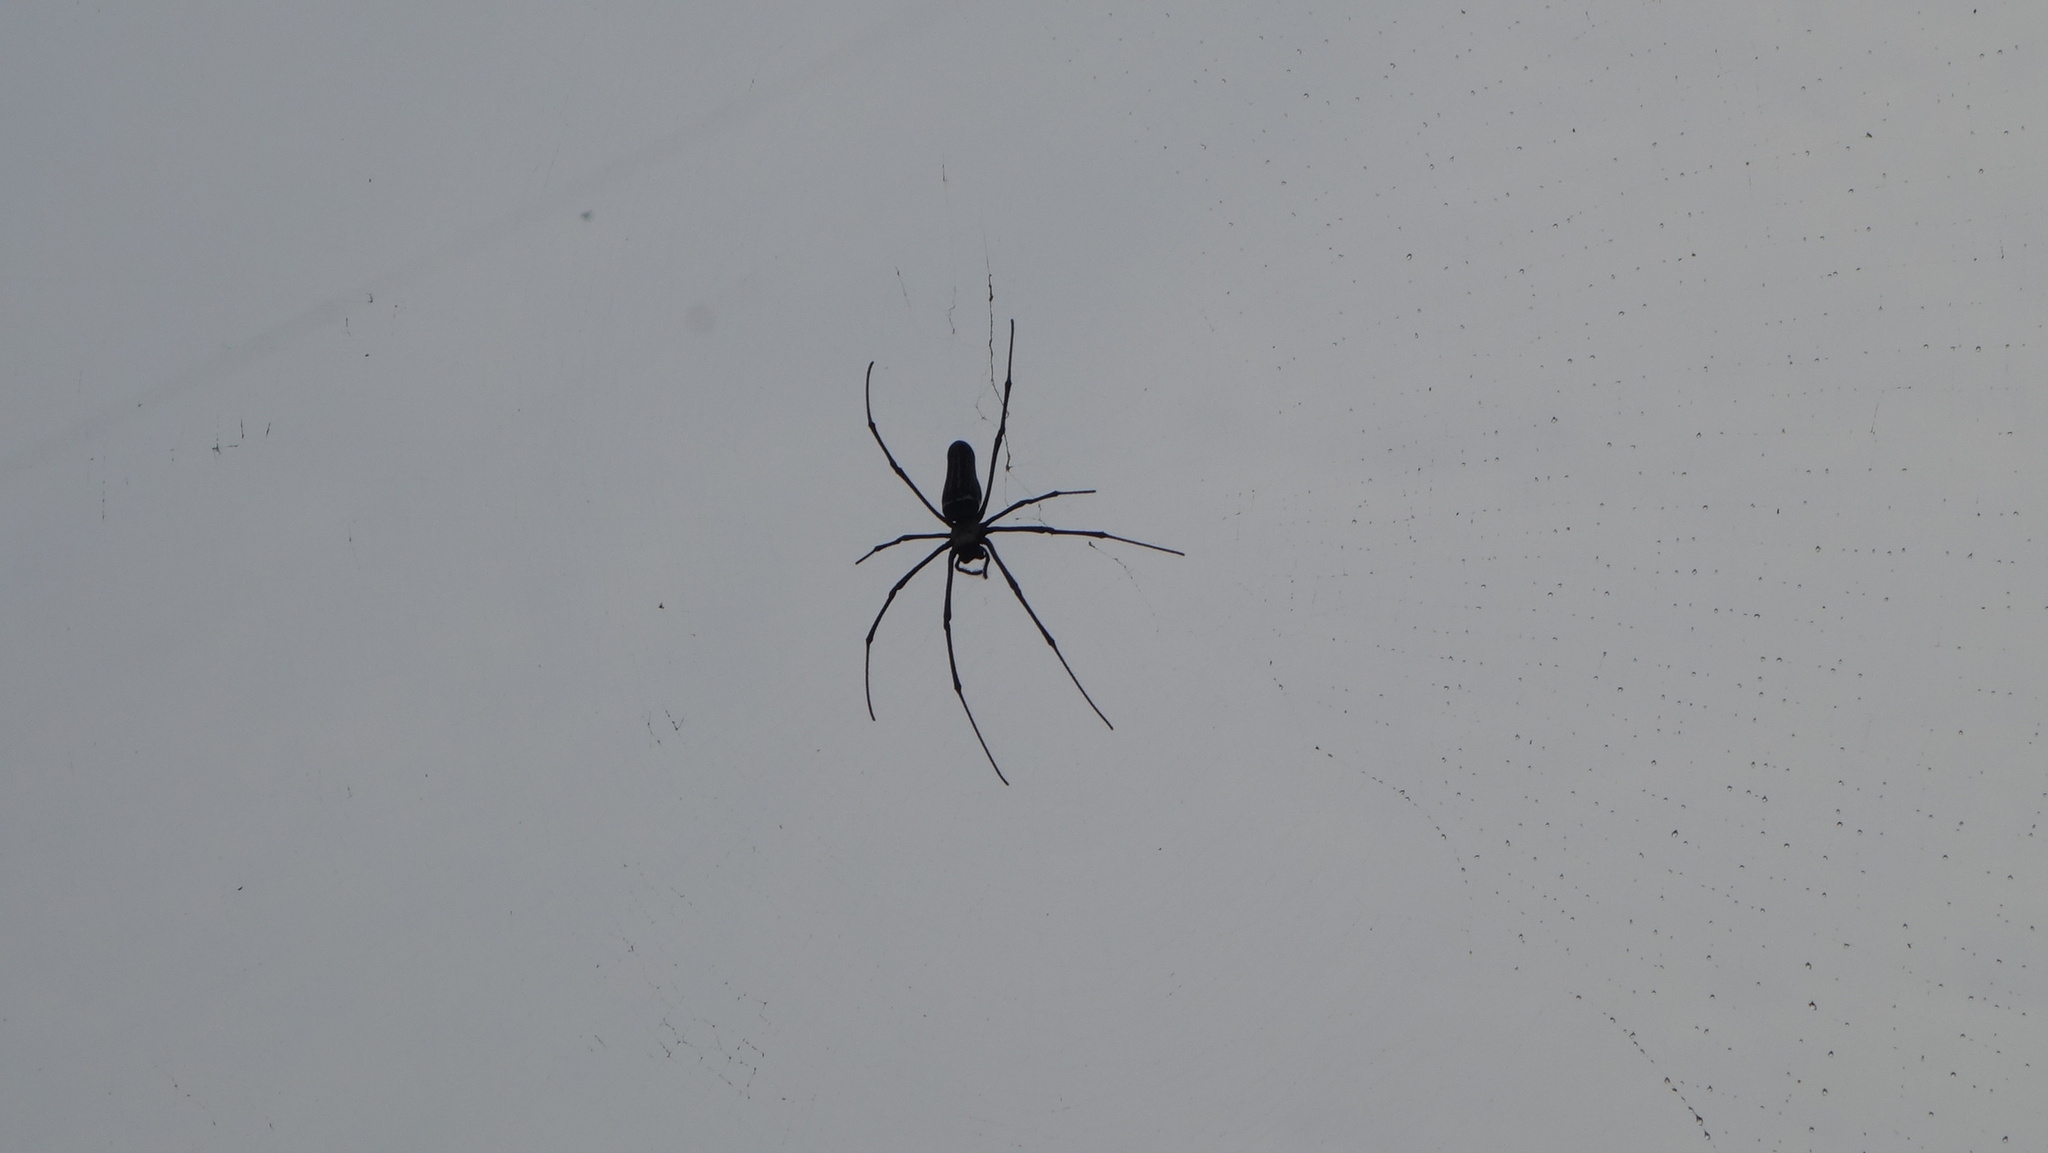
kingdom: Animalia
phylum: Arthropoda
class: Arachnida
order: Araneae
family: Araneidae
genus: Nephila
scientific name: Nephila pilipes
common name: Giant golden orb weaver
